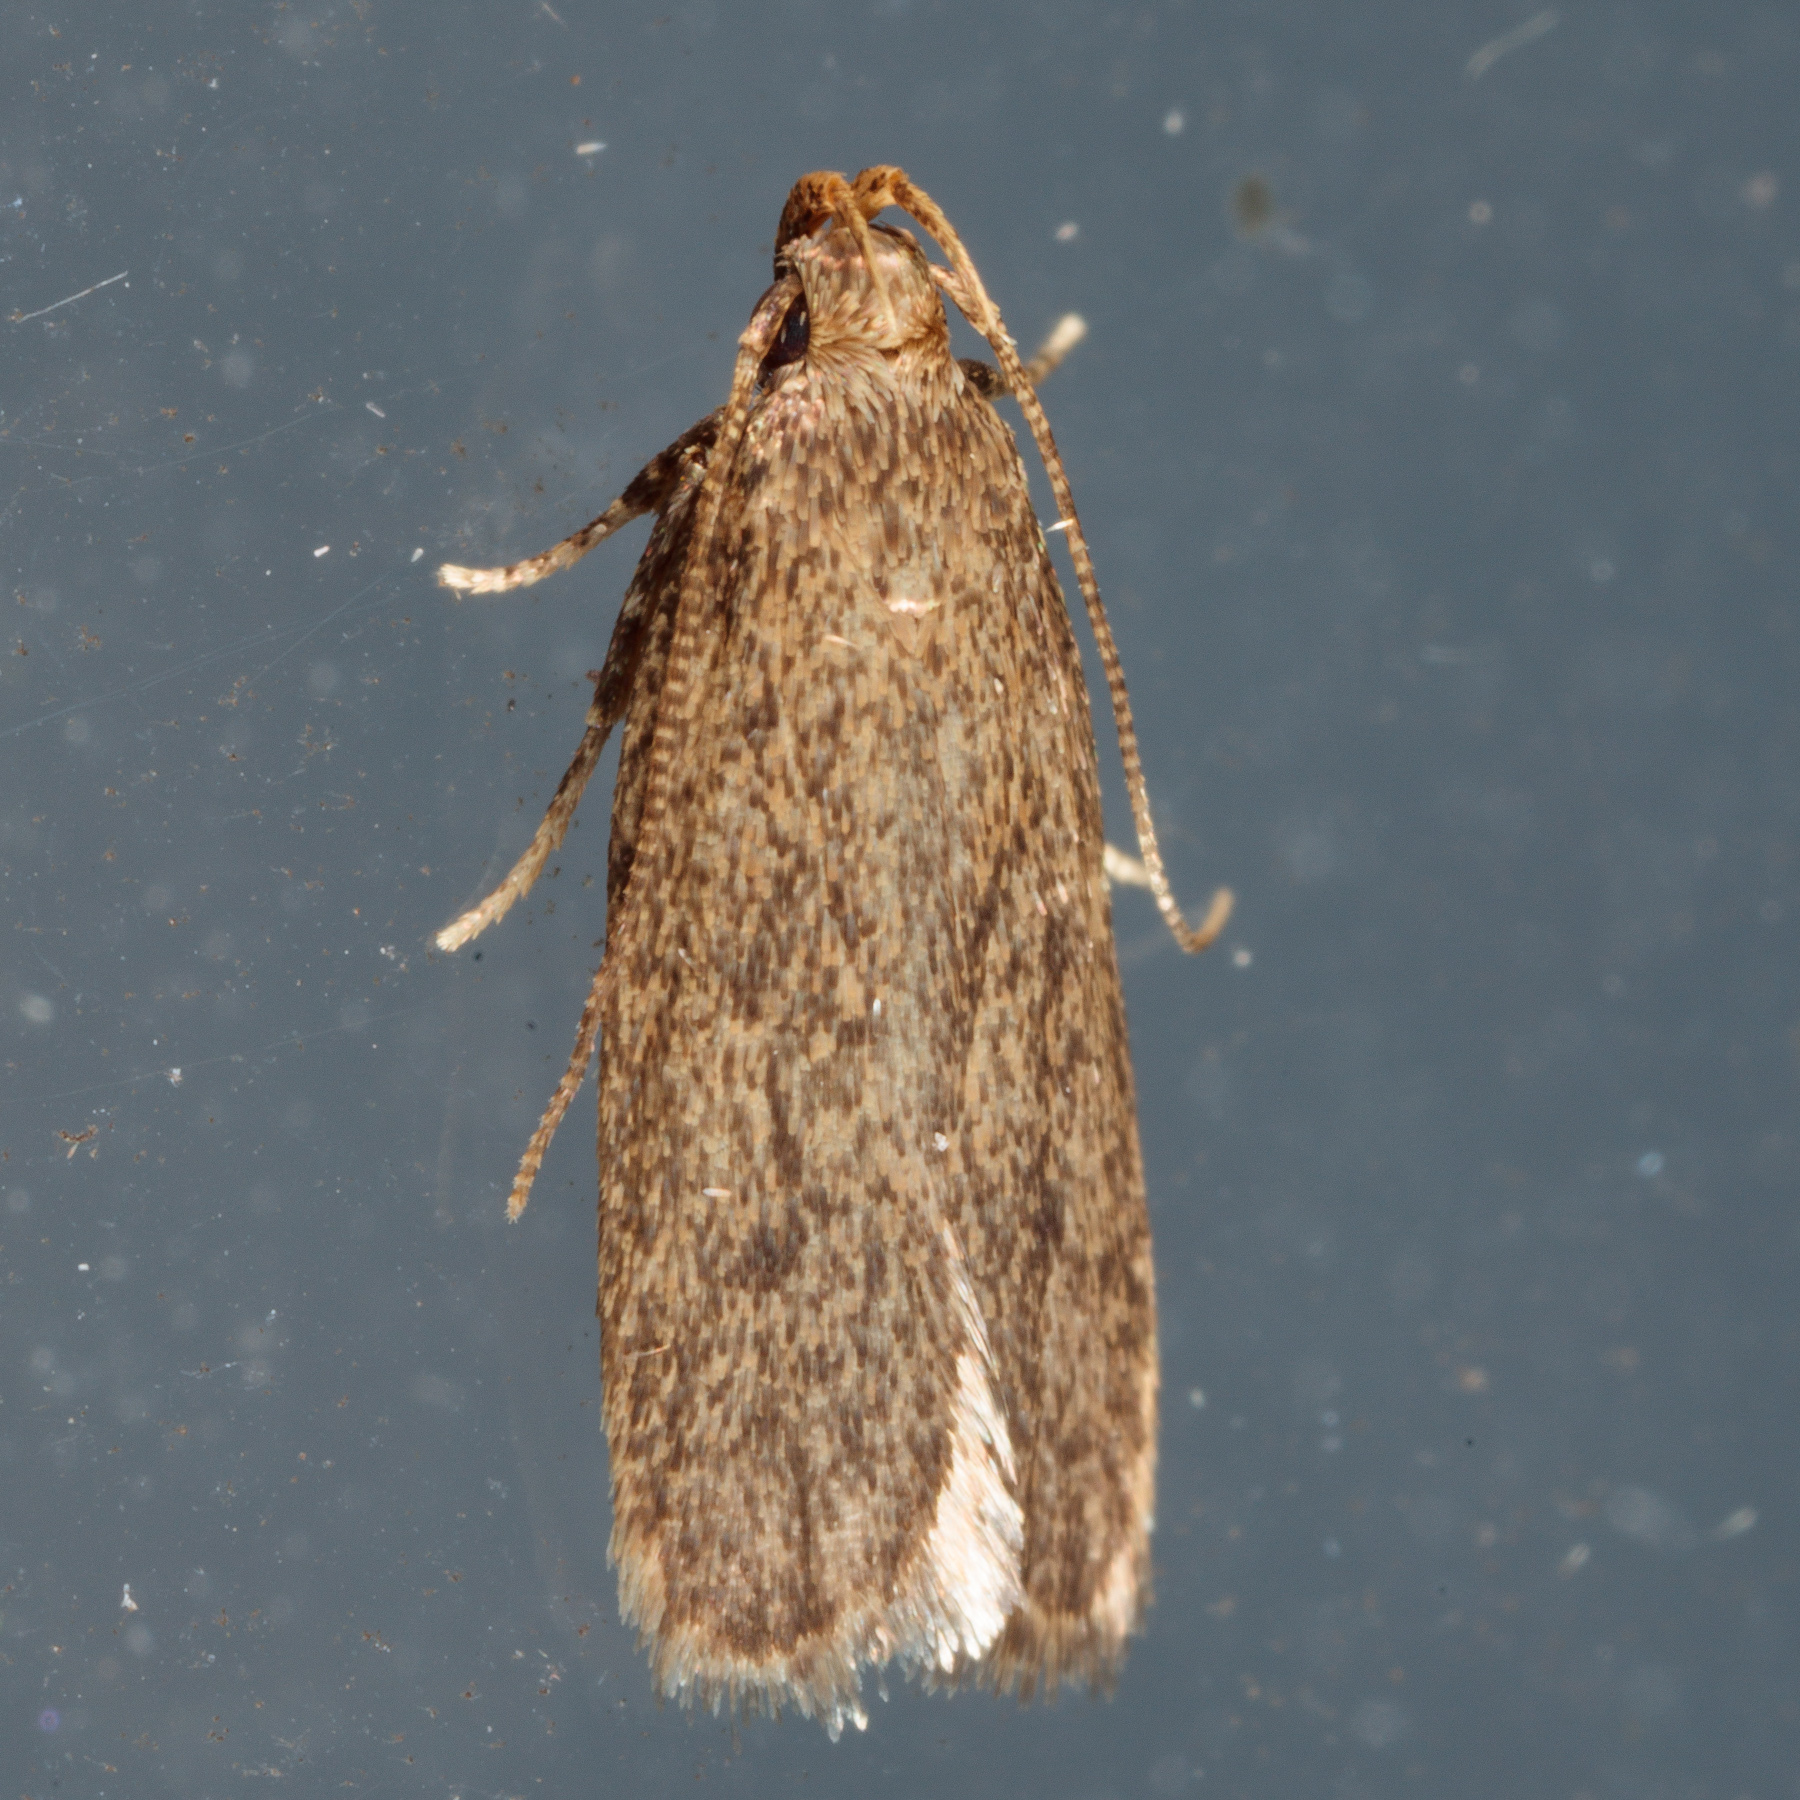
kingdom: Animalia
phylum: Arthropoda
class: Insecta
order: Lepidoptera
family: Autostichidae
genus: Glyphidocera
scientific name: Glyphidocera juniperella
